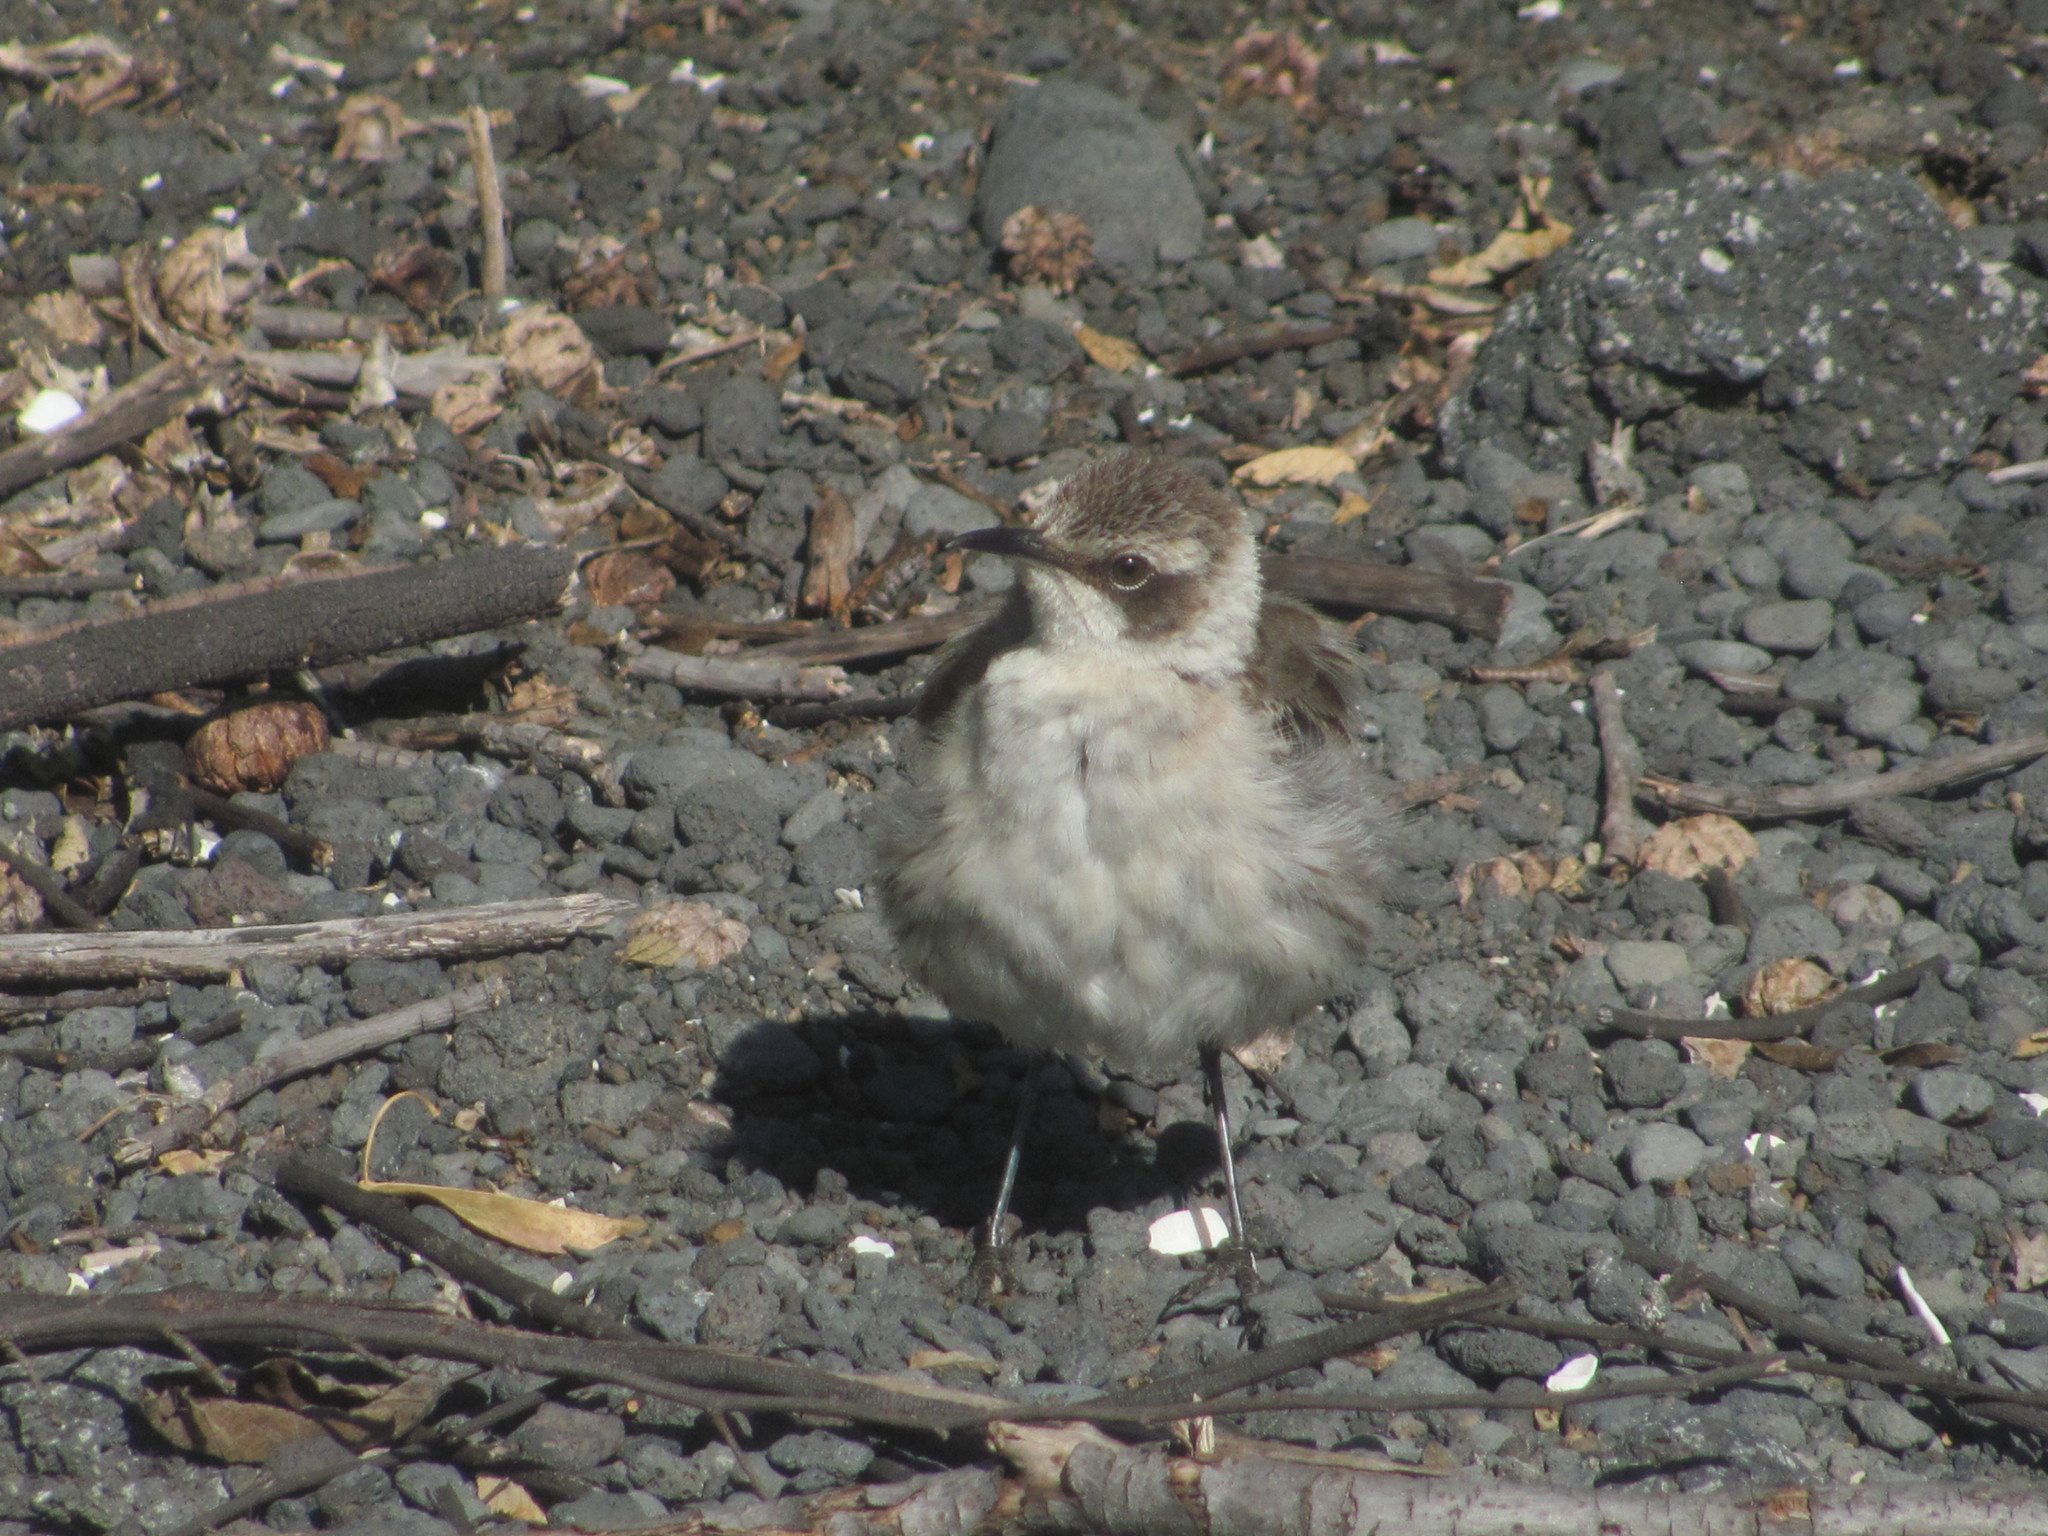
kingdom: Animalia
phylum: Chordata
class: Aves
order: Passeriformes
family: Mimidae
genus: Mimus
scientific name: Mimus parvulus
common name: Galapagos mockingbird
